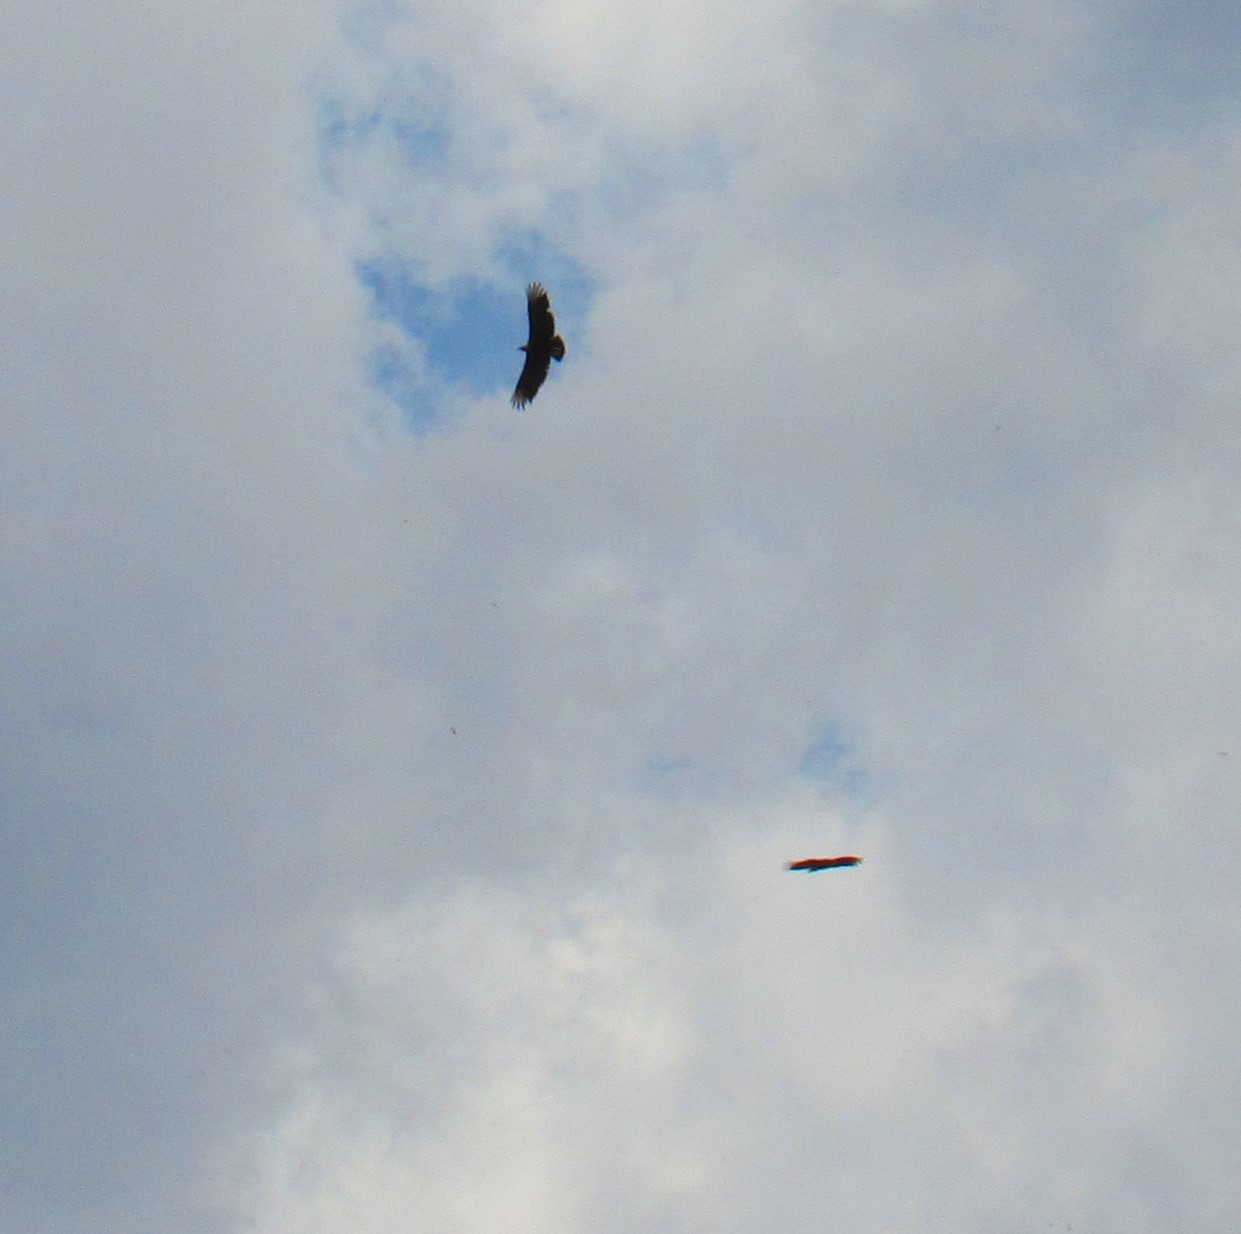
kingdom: Animalia
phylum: Chordata
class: Aves
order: Accipitriformes
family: Cathartidae
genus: Coragyps
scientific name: Coragyps atratus
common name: Black vulture
